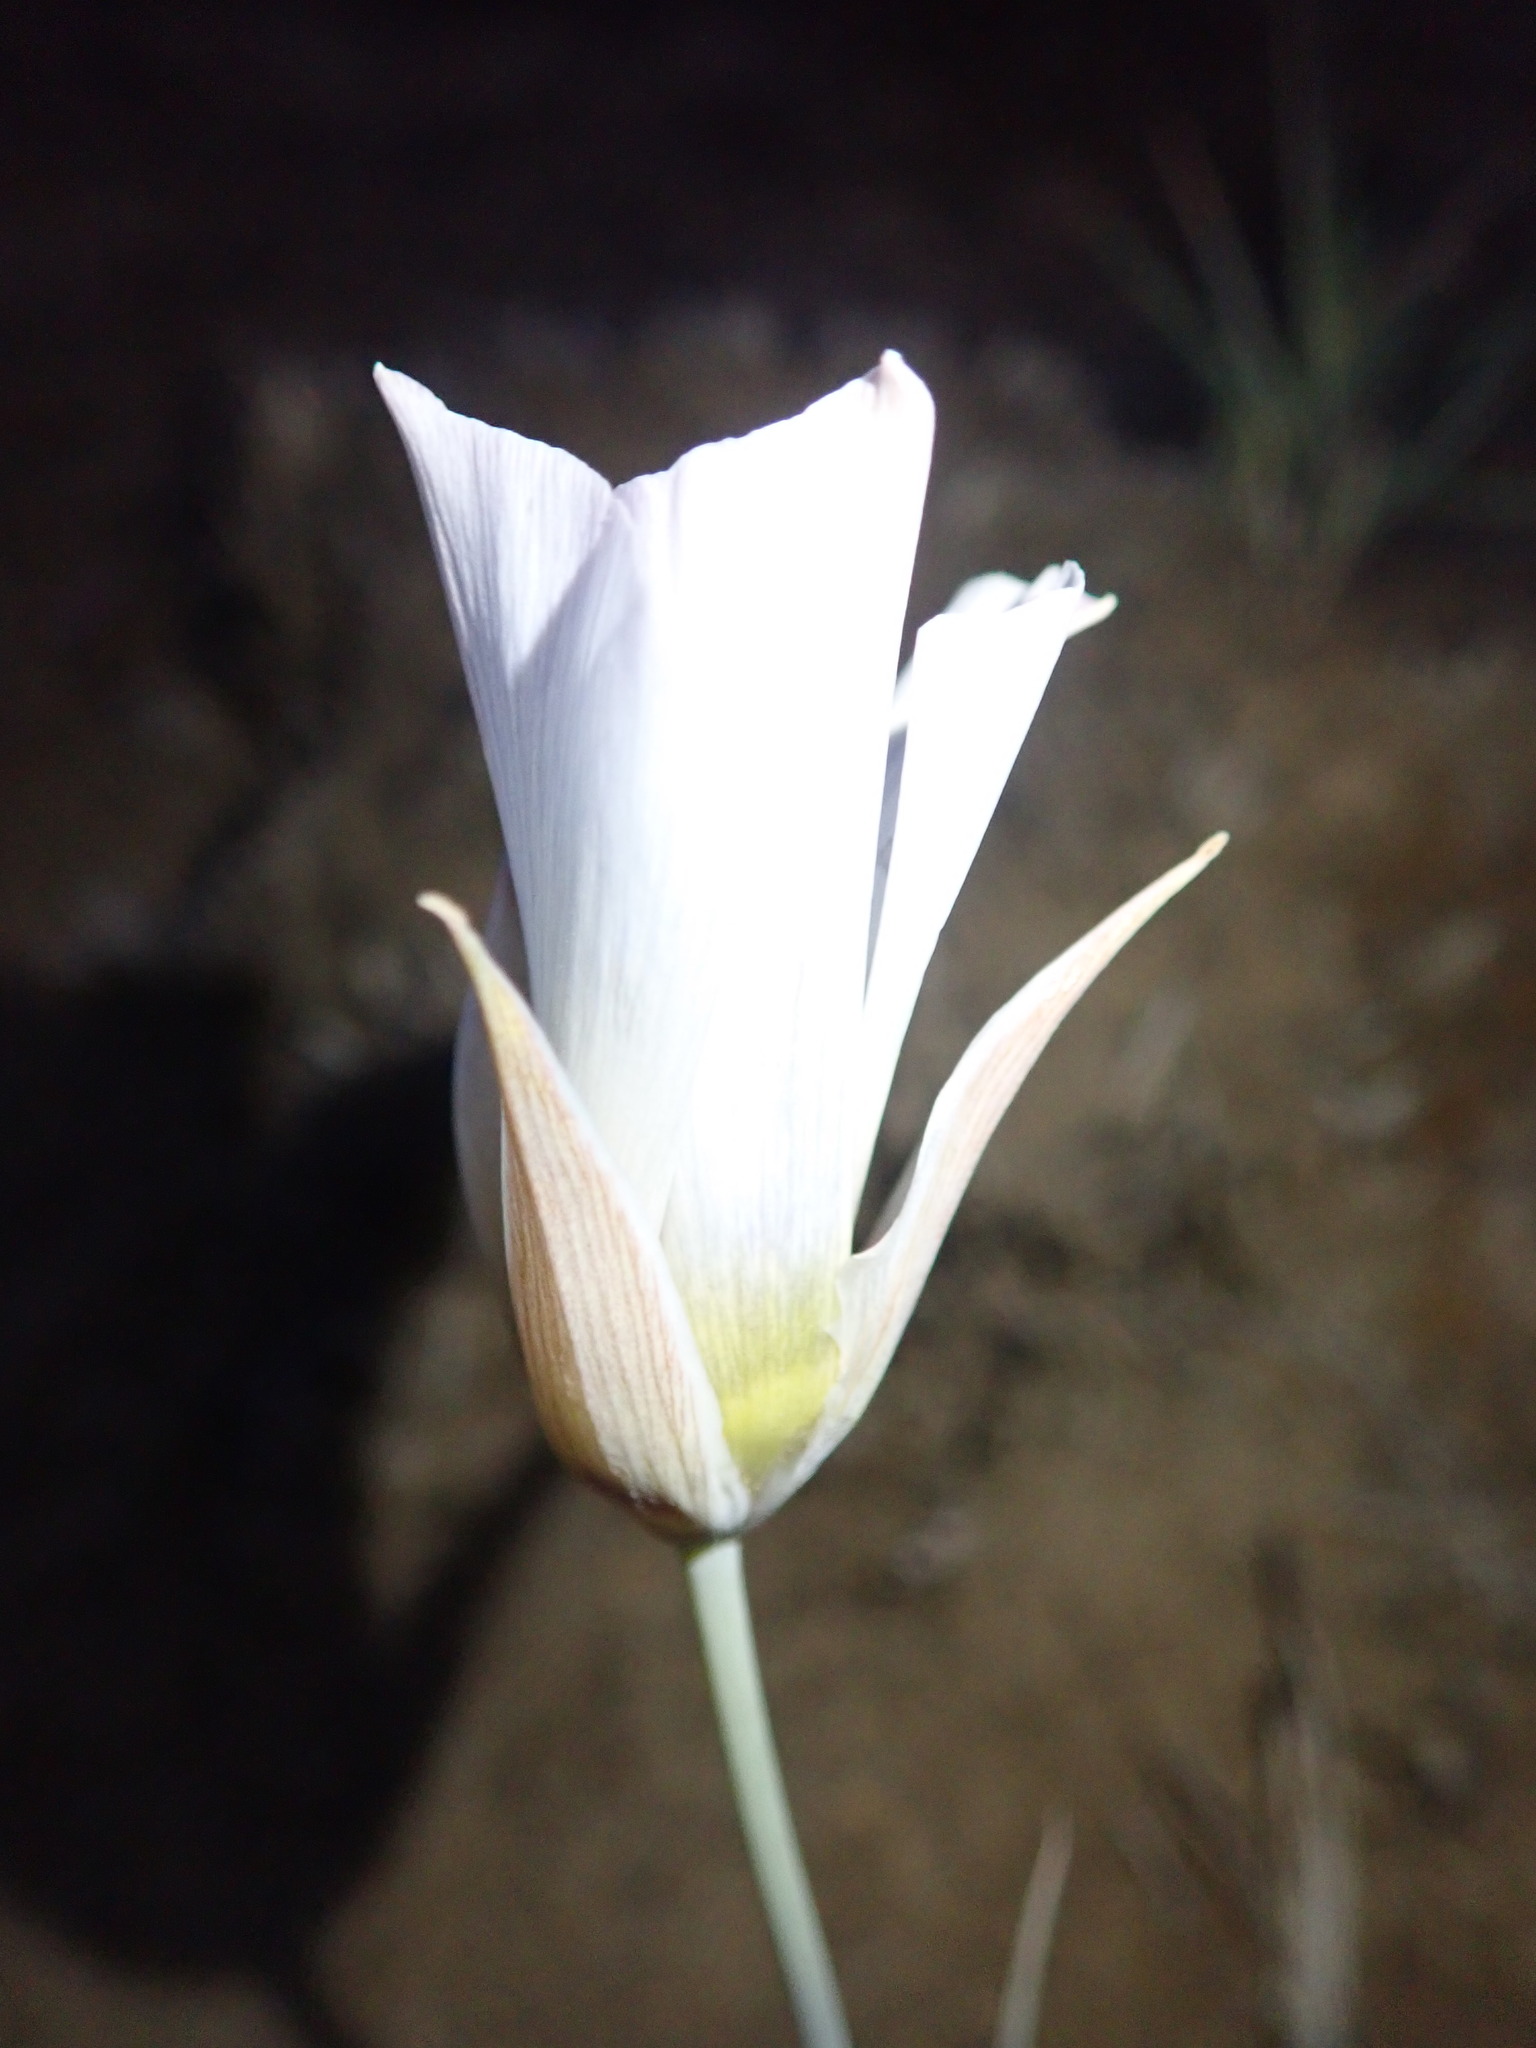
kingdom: Plantae
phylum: Tracheophyta
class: Liliopsida
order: Liliales
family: Liliaceae
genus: Calochortus
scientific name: Calochortus ambiguus
